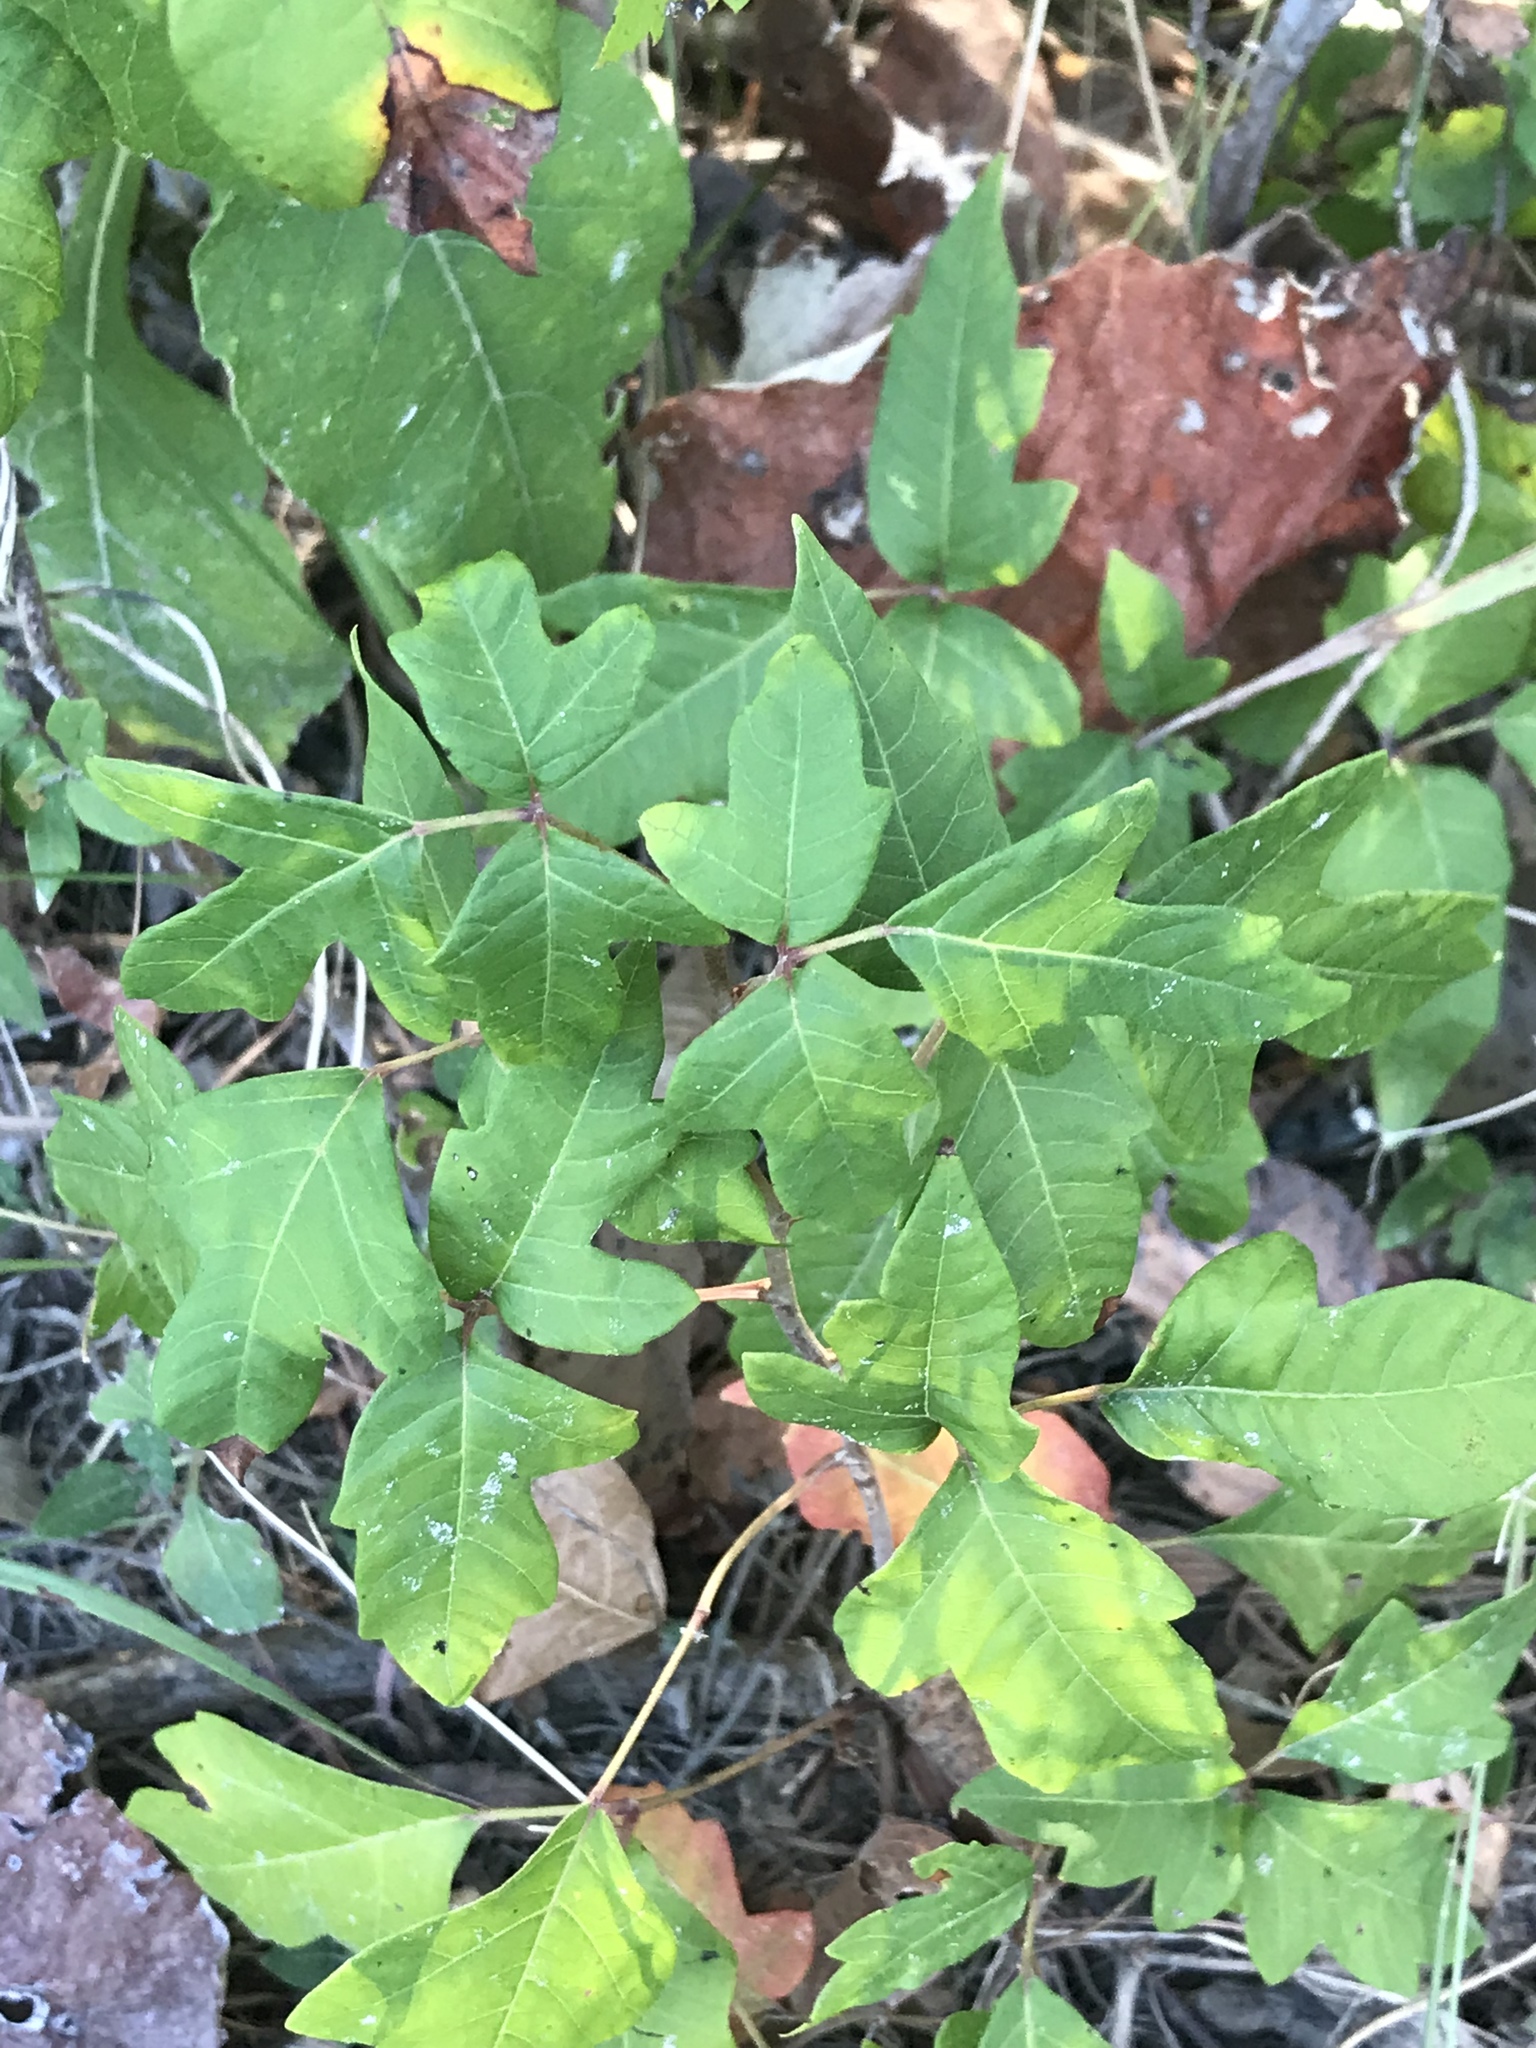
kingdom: Plantae
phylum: Tracheophyta
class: Magnoliopsida
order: Sapindales
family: Anacardiaceae
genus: Toxicodendron
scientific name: Toxicodendron radicans
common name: Poison ivy
